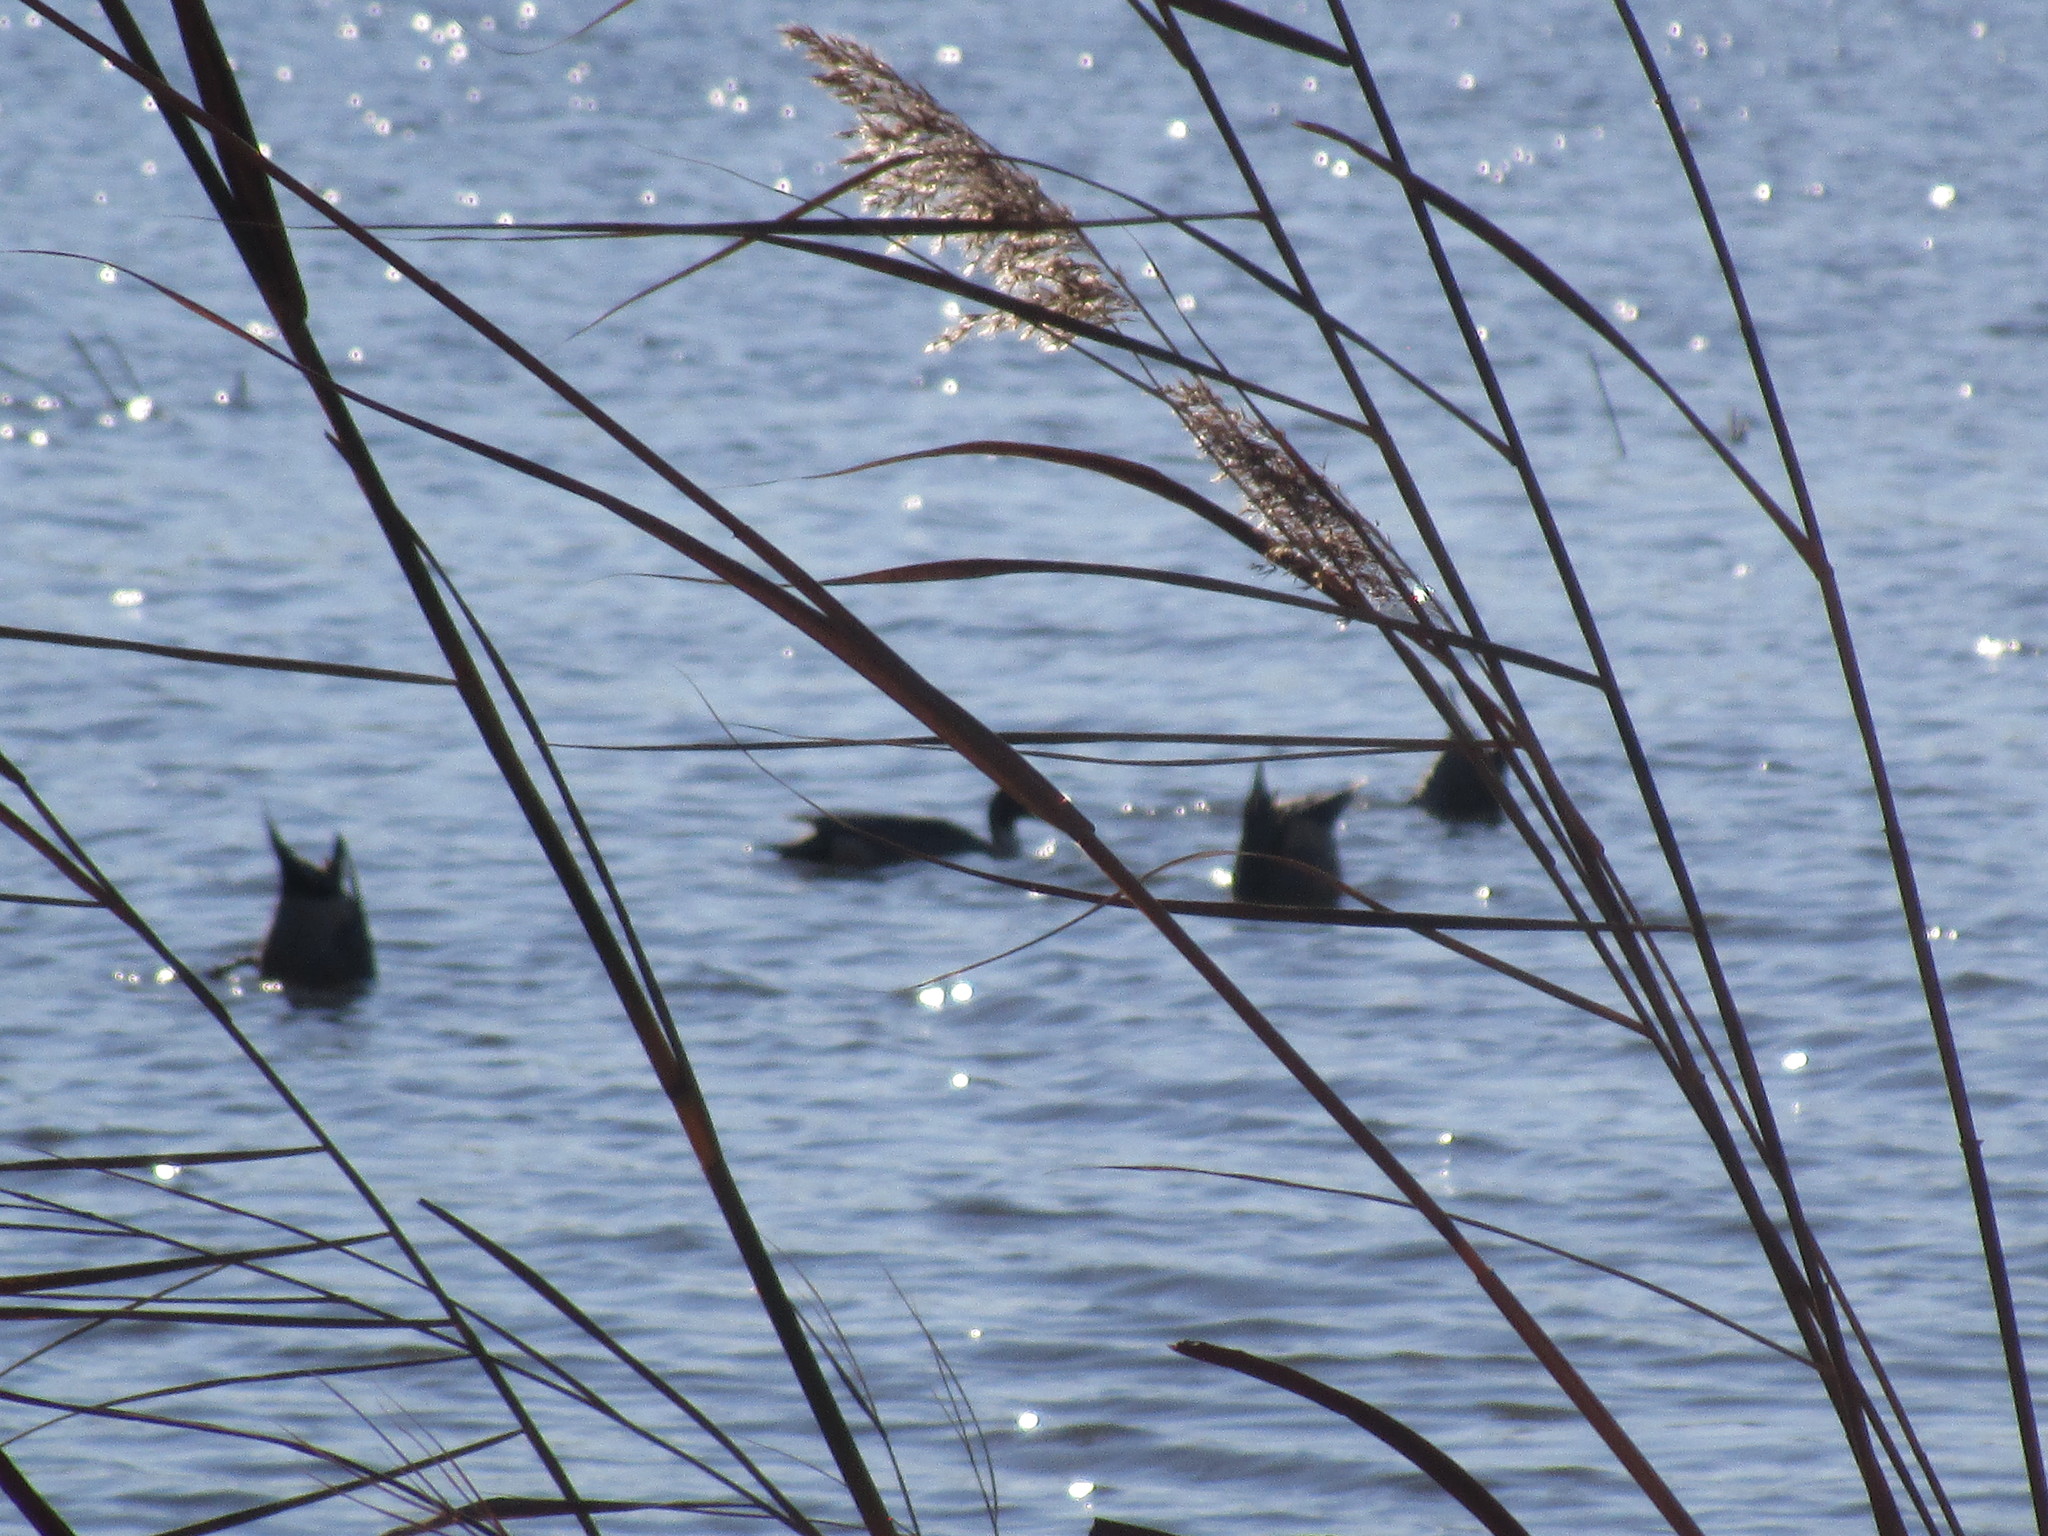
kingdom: Animalia
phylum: Chordata
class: Aves
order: Anseriformes
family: Anatidae
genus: Anas
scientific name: Anas acuta
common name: Northern pintail
